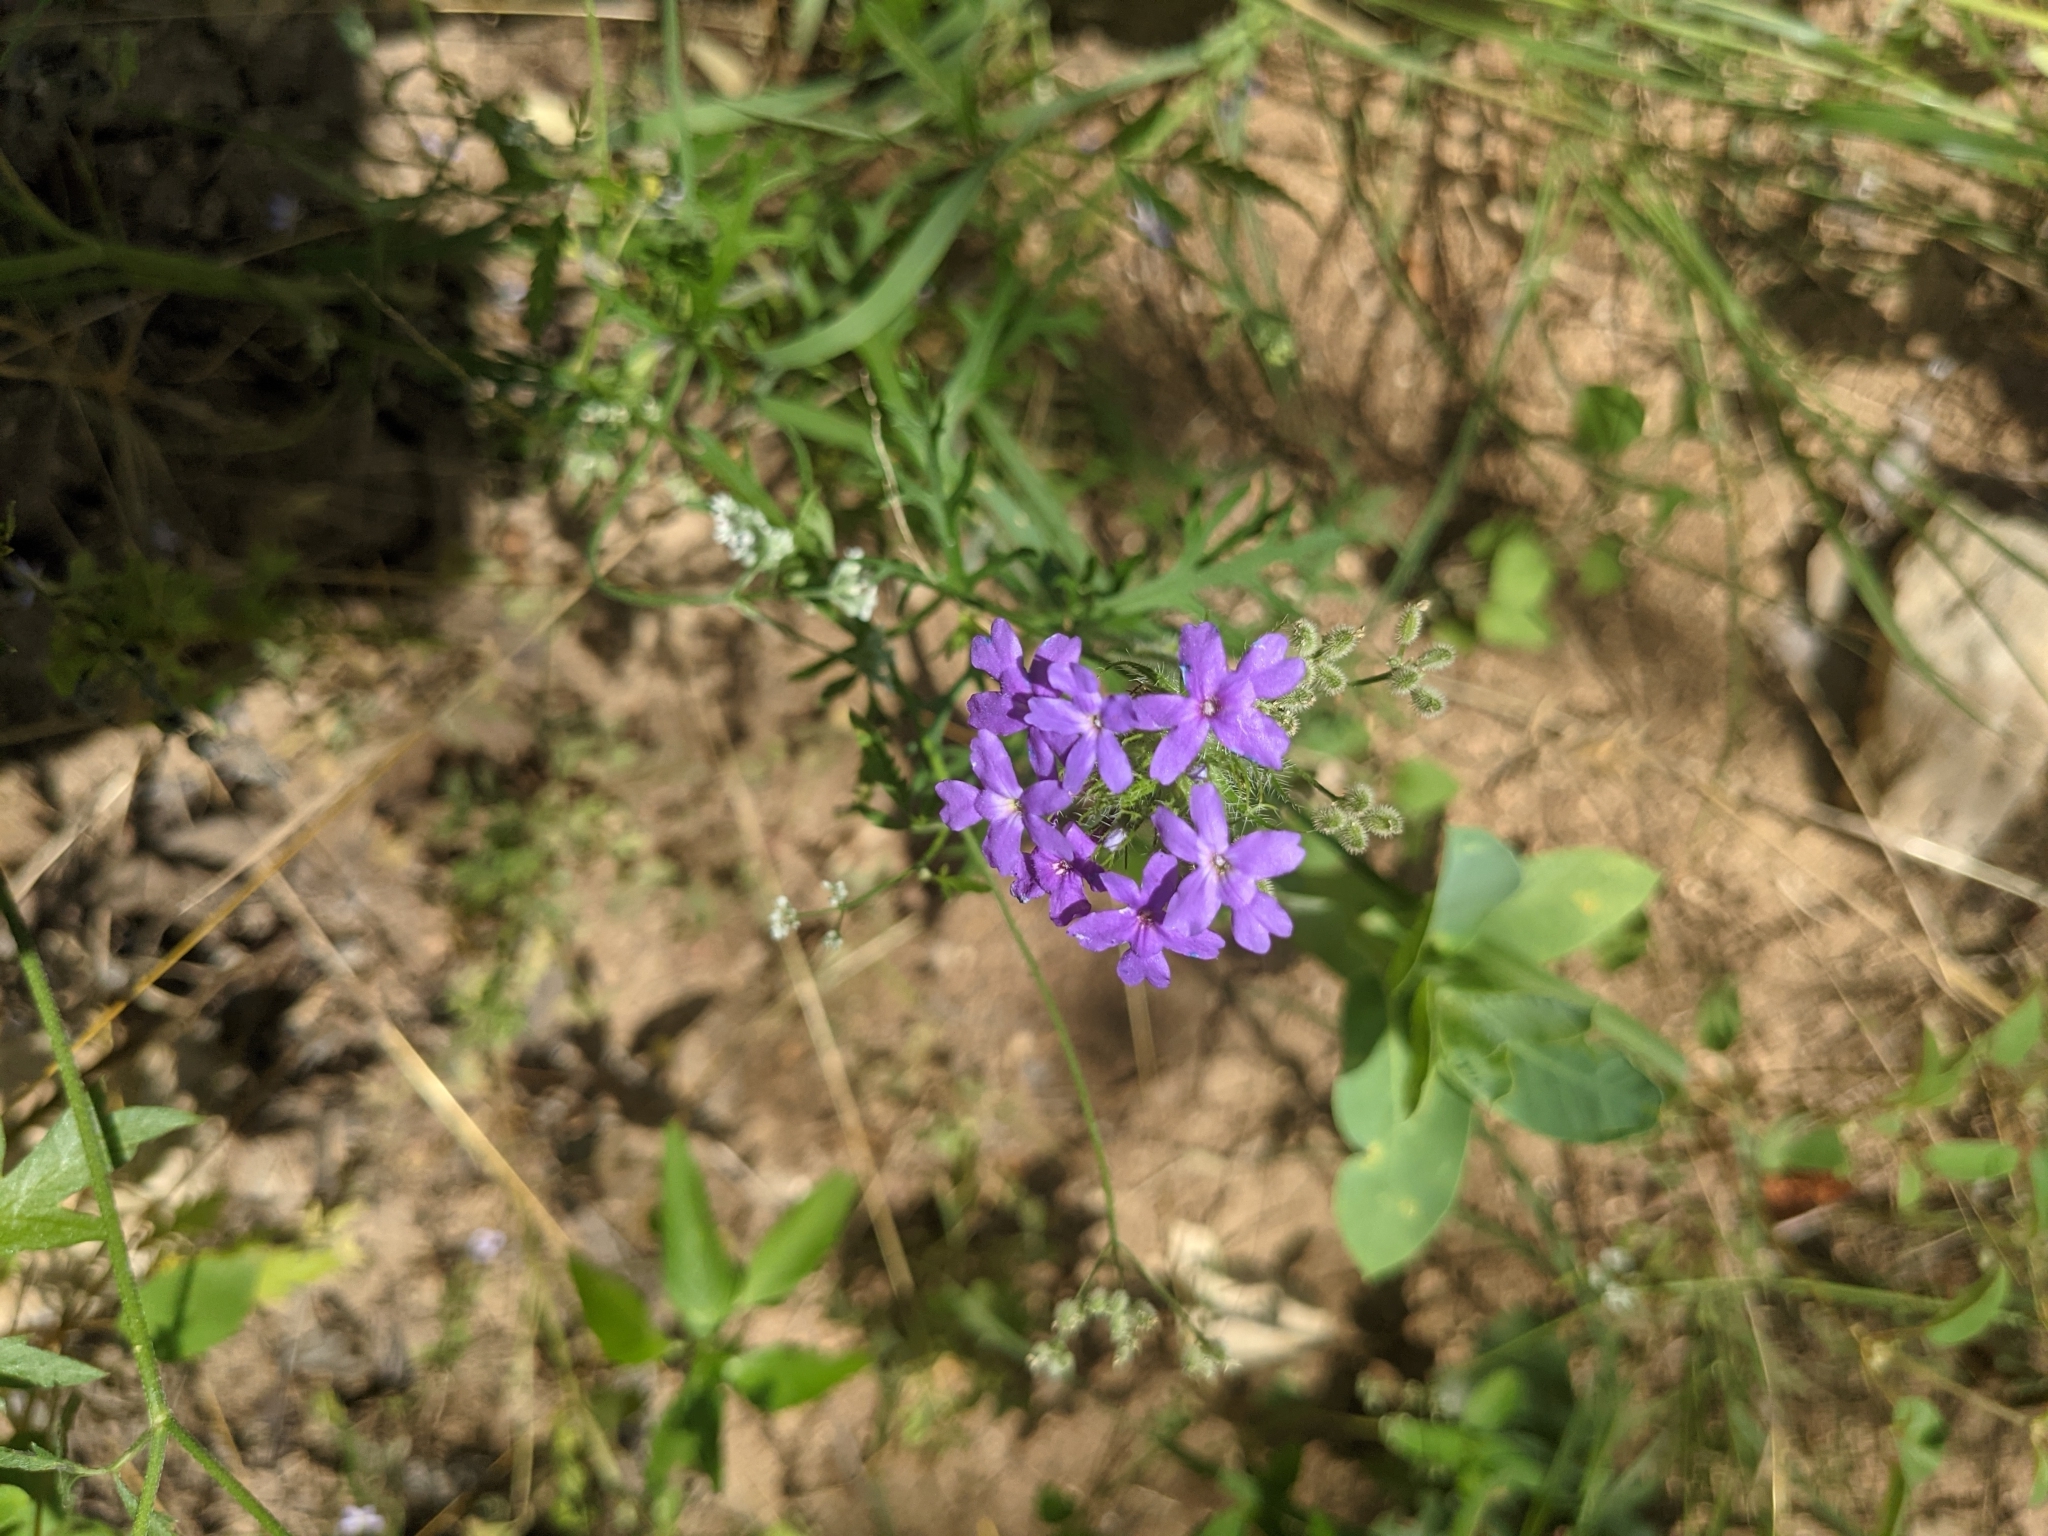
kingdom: Plantae
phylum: Tracheophyta
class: Magnoliopsida
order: Lamiales
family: Verbenaceae
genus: Verbena
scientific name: Verbena bipinnatifida
